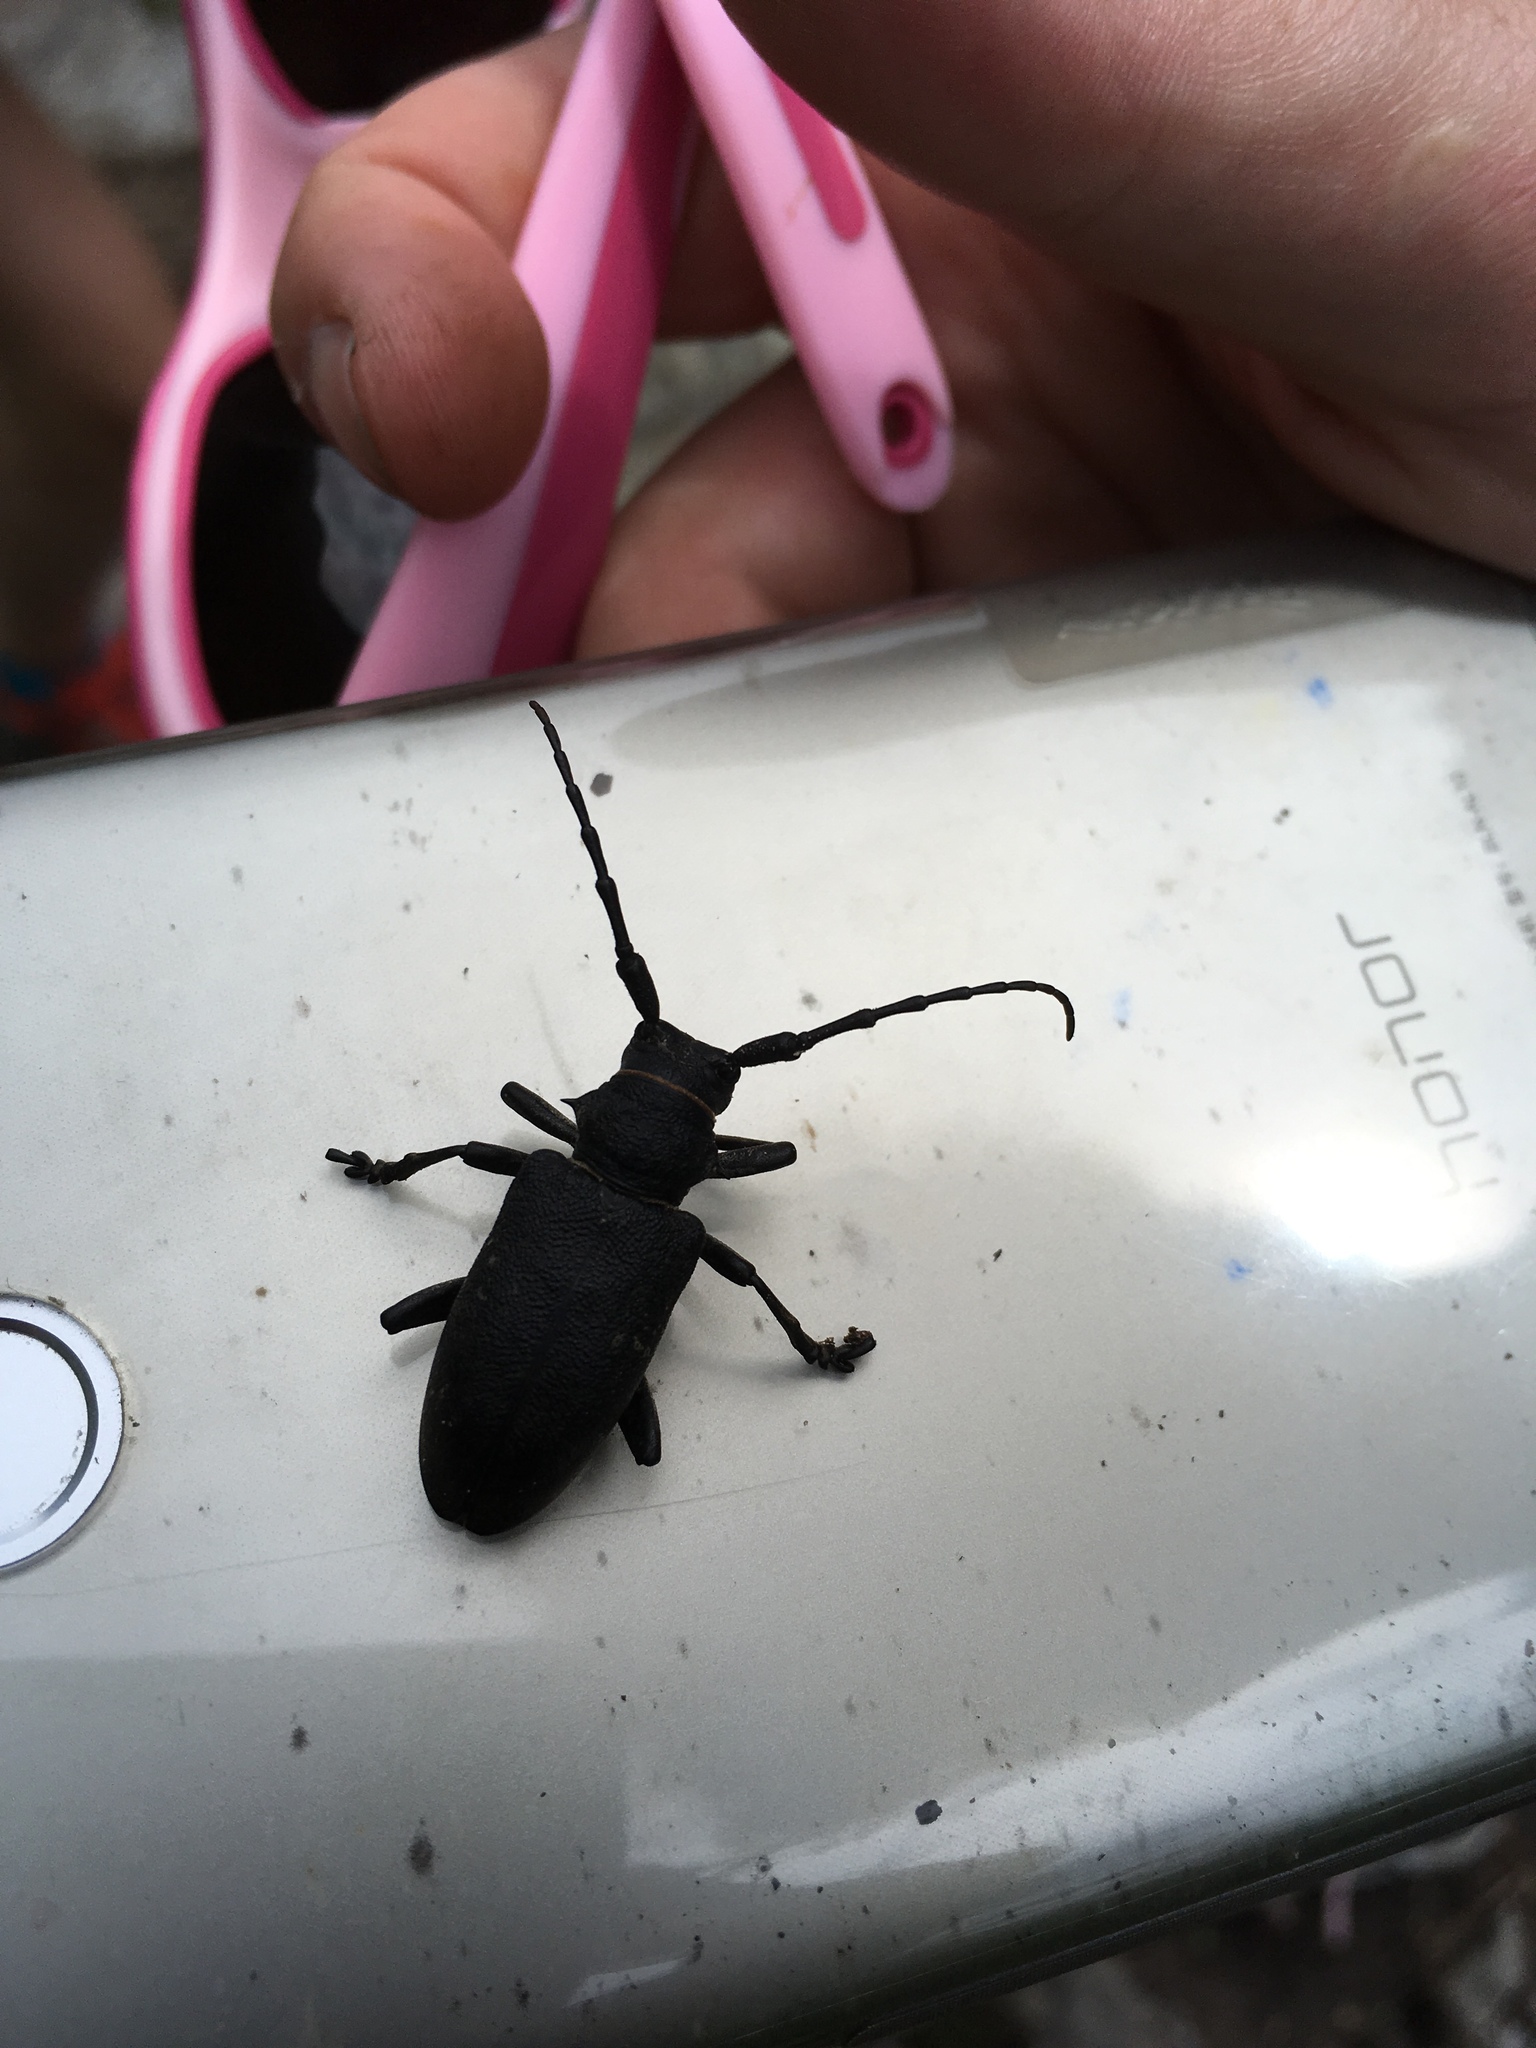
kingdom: Animalia
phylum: Arthropoda
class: Insecta
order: Coleoptera
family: Cerambycidae
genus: Lamia
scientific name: Lamia textor
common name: Weaver beetle
